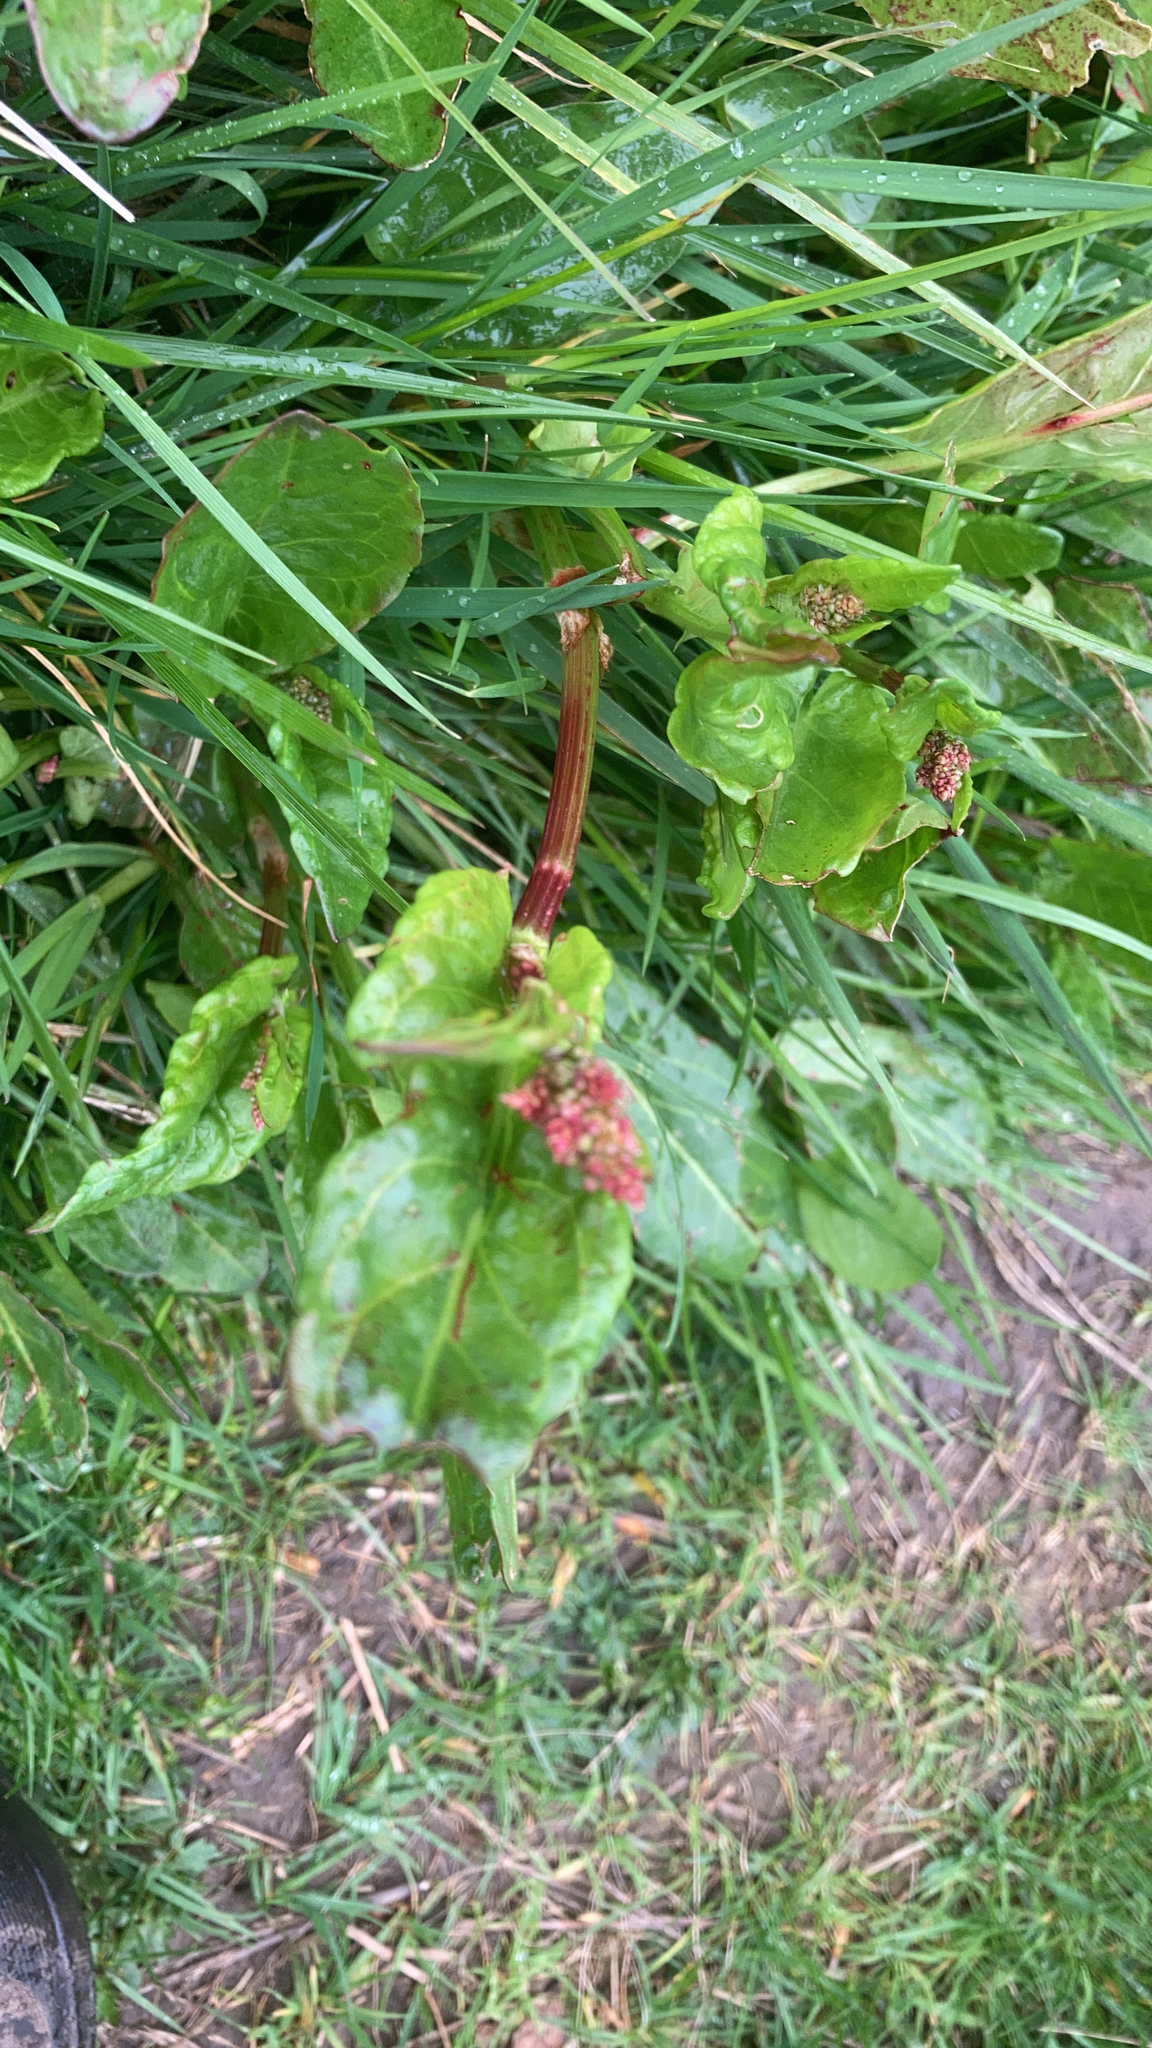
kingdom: Plantae
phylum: Tracheophyta
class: Magnoliopsida
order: Caryophyllales
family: Polygonaceae
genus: Rumex
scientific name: Rumex acetosa
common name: Garden sorrel
